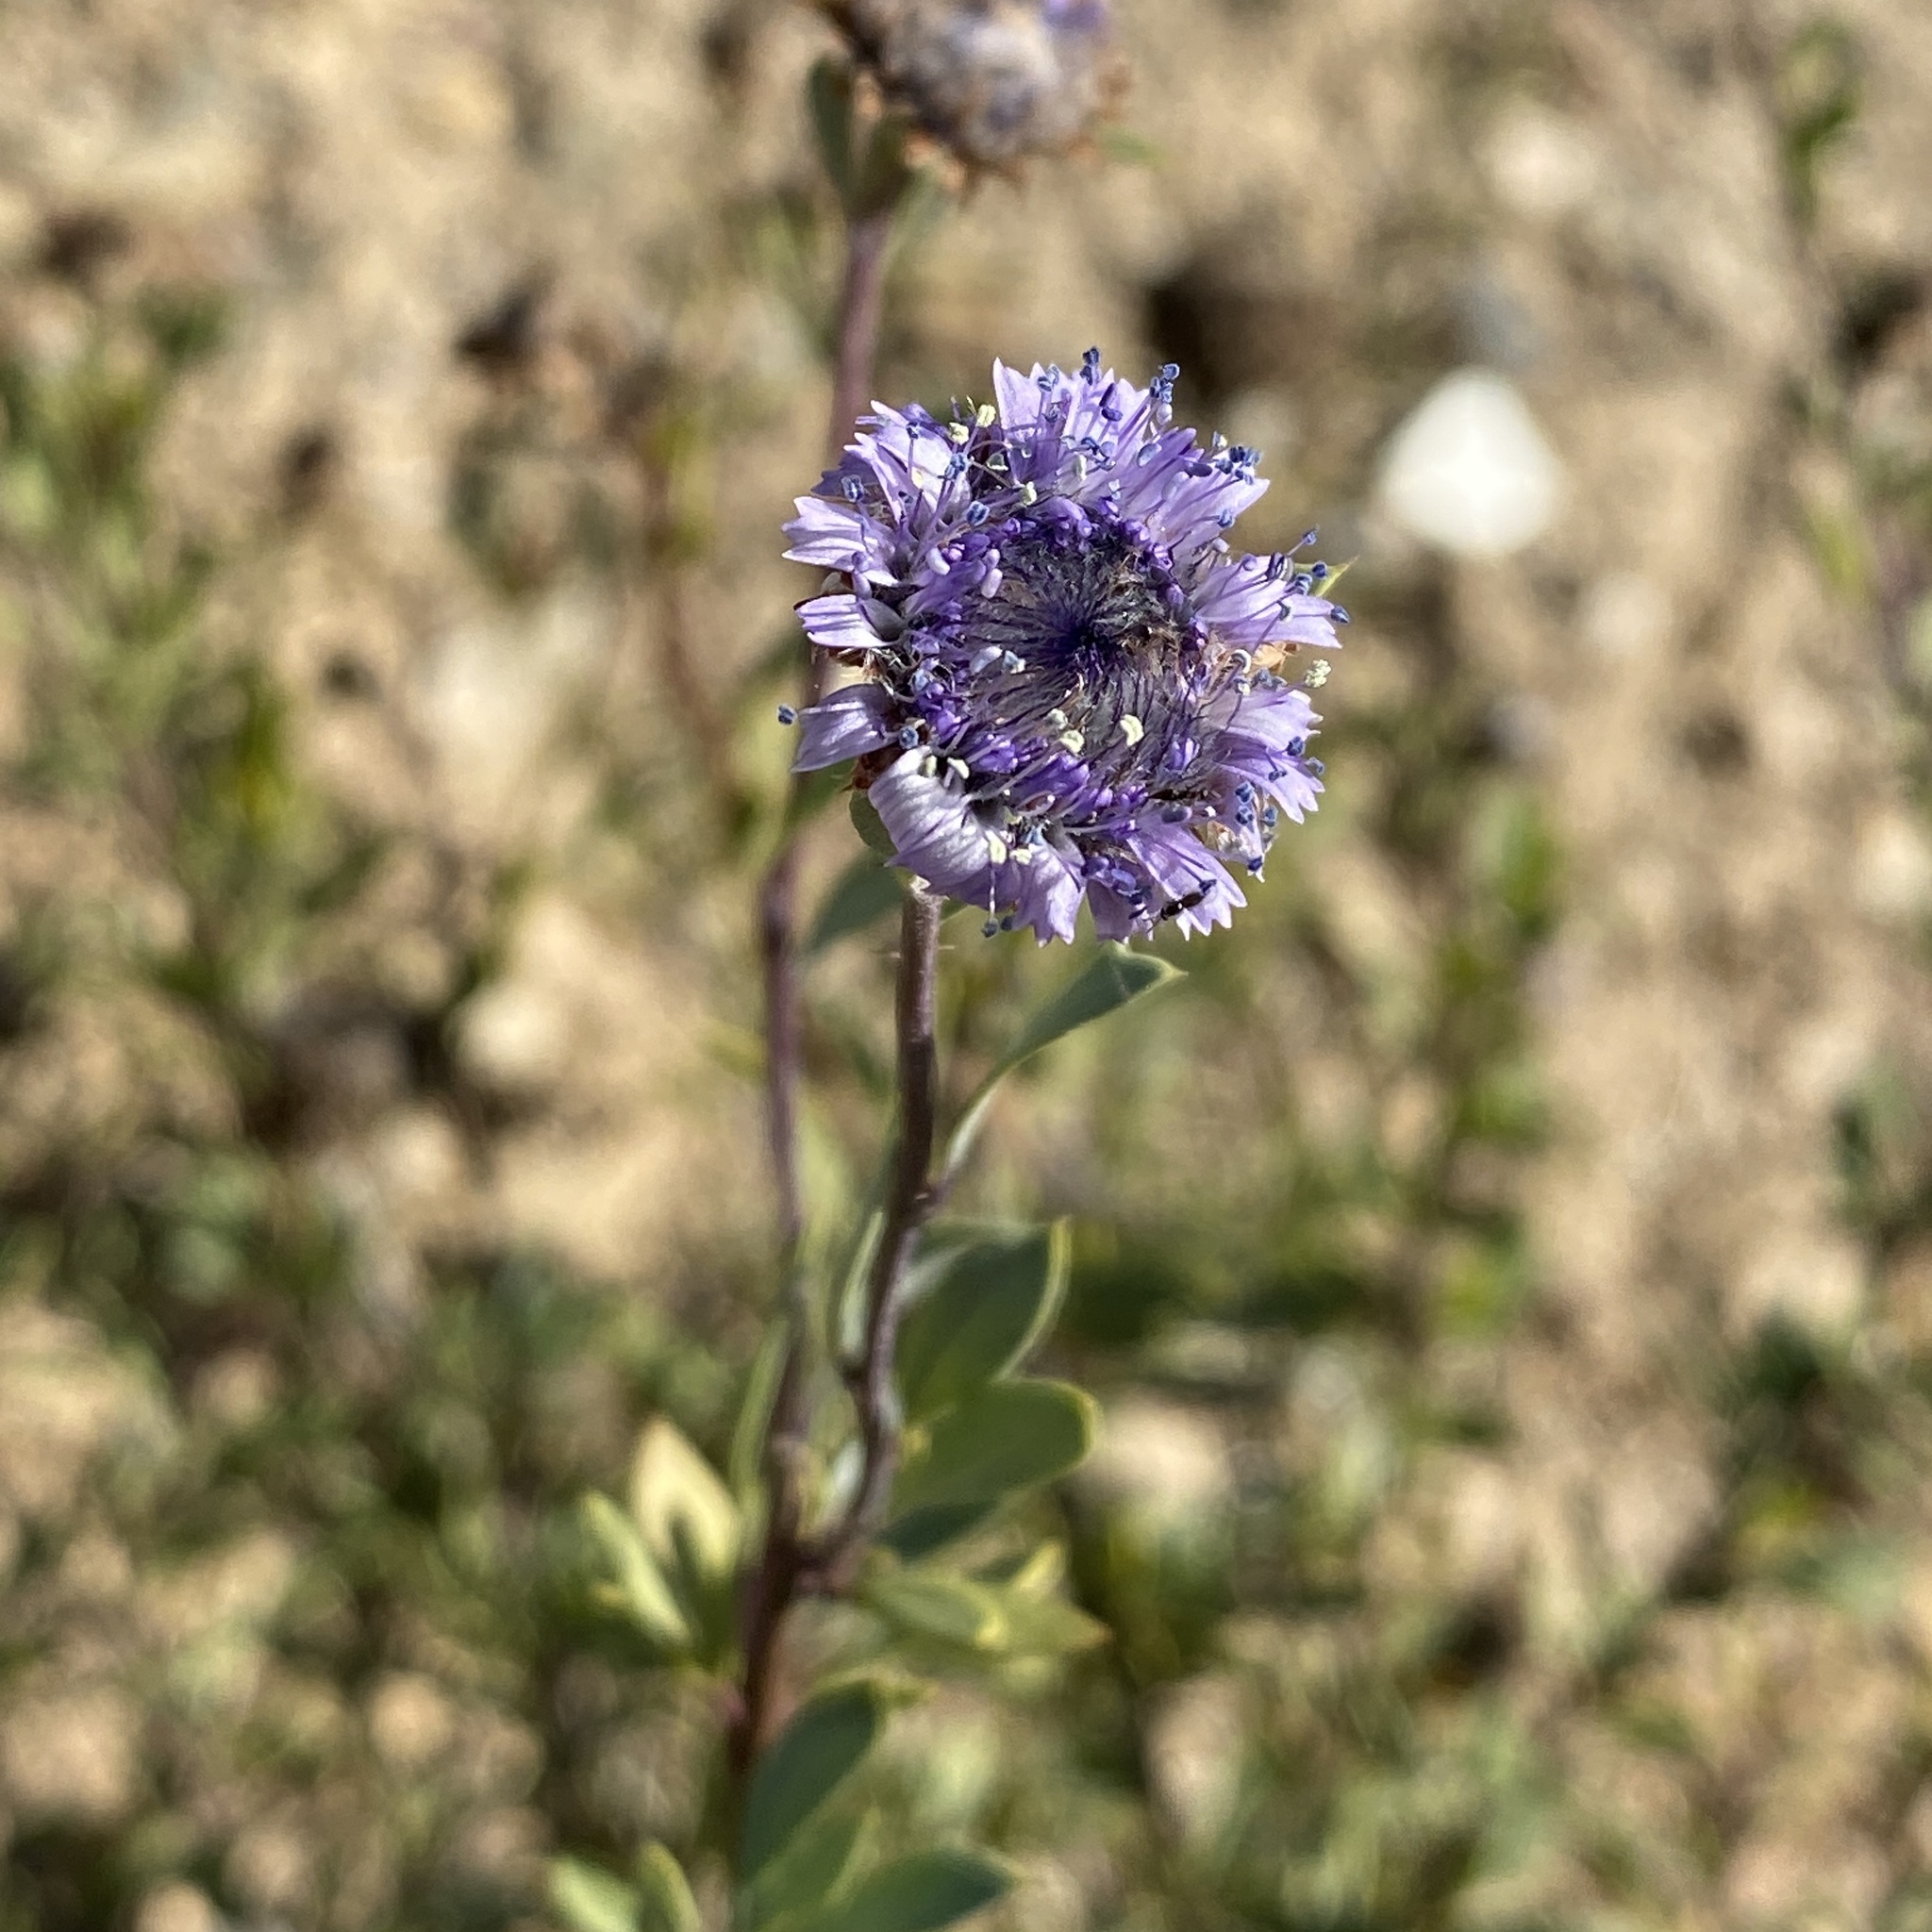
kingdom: Plantae
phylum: Tracheophyta
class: Magnoliopsida
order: Lamiales
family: Plantaginaceae
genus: Globularia
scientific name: Globularia alypum
